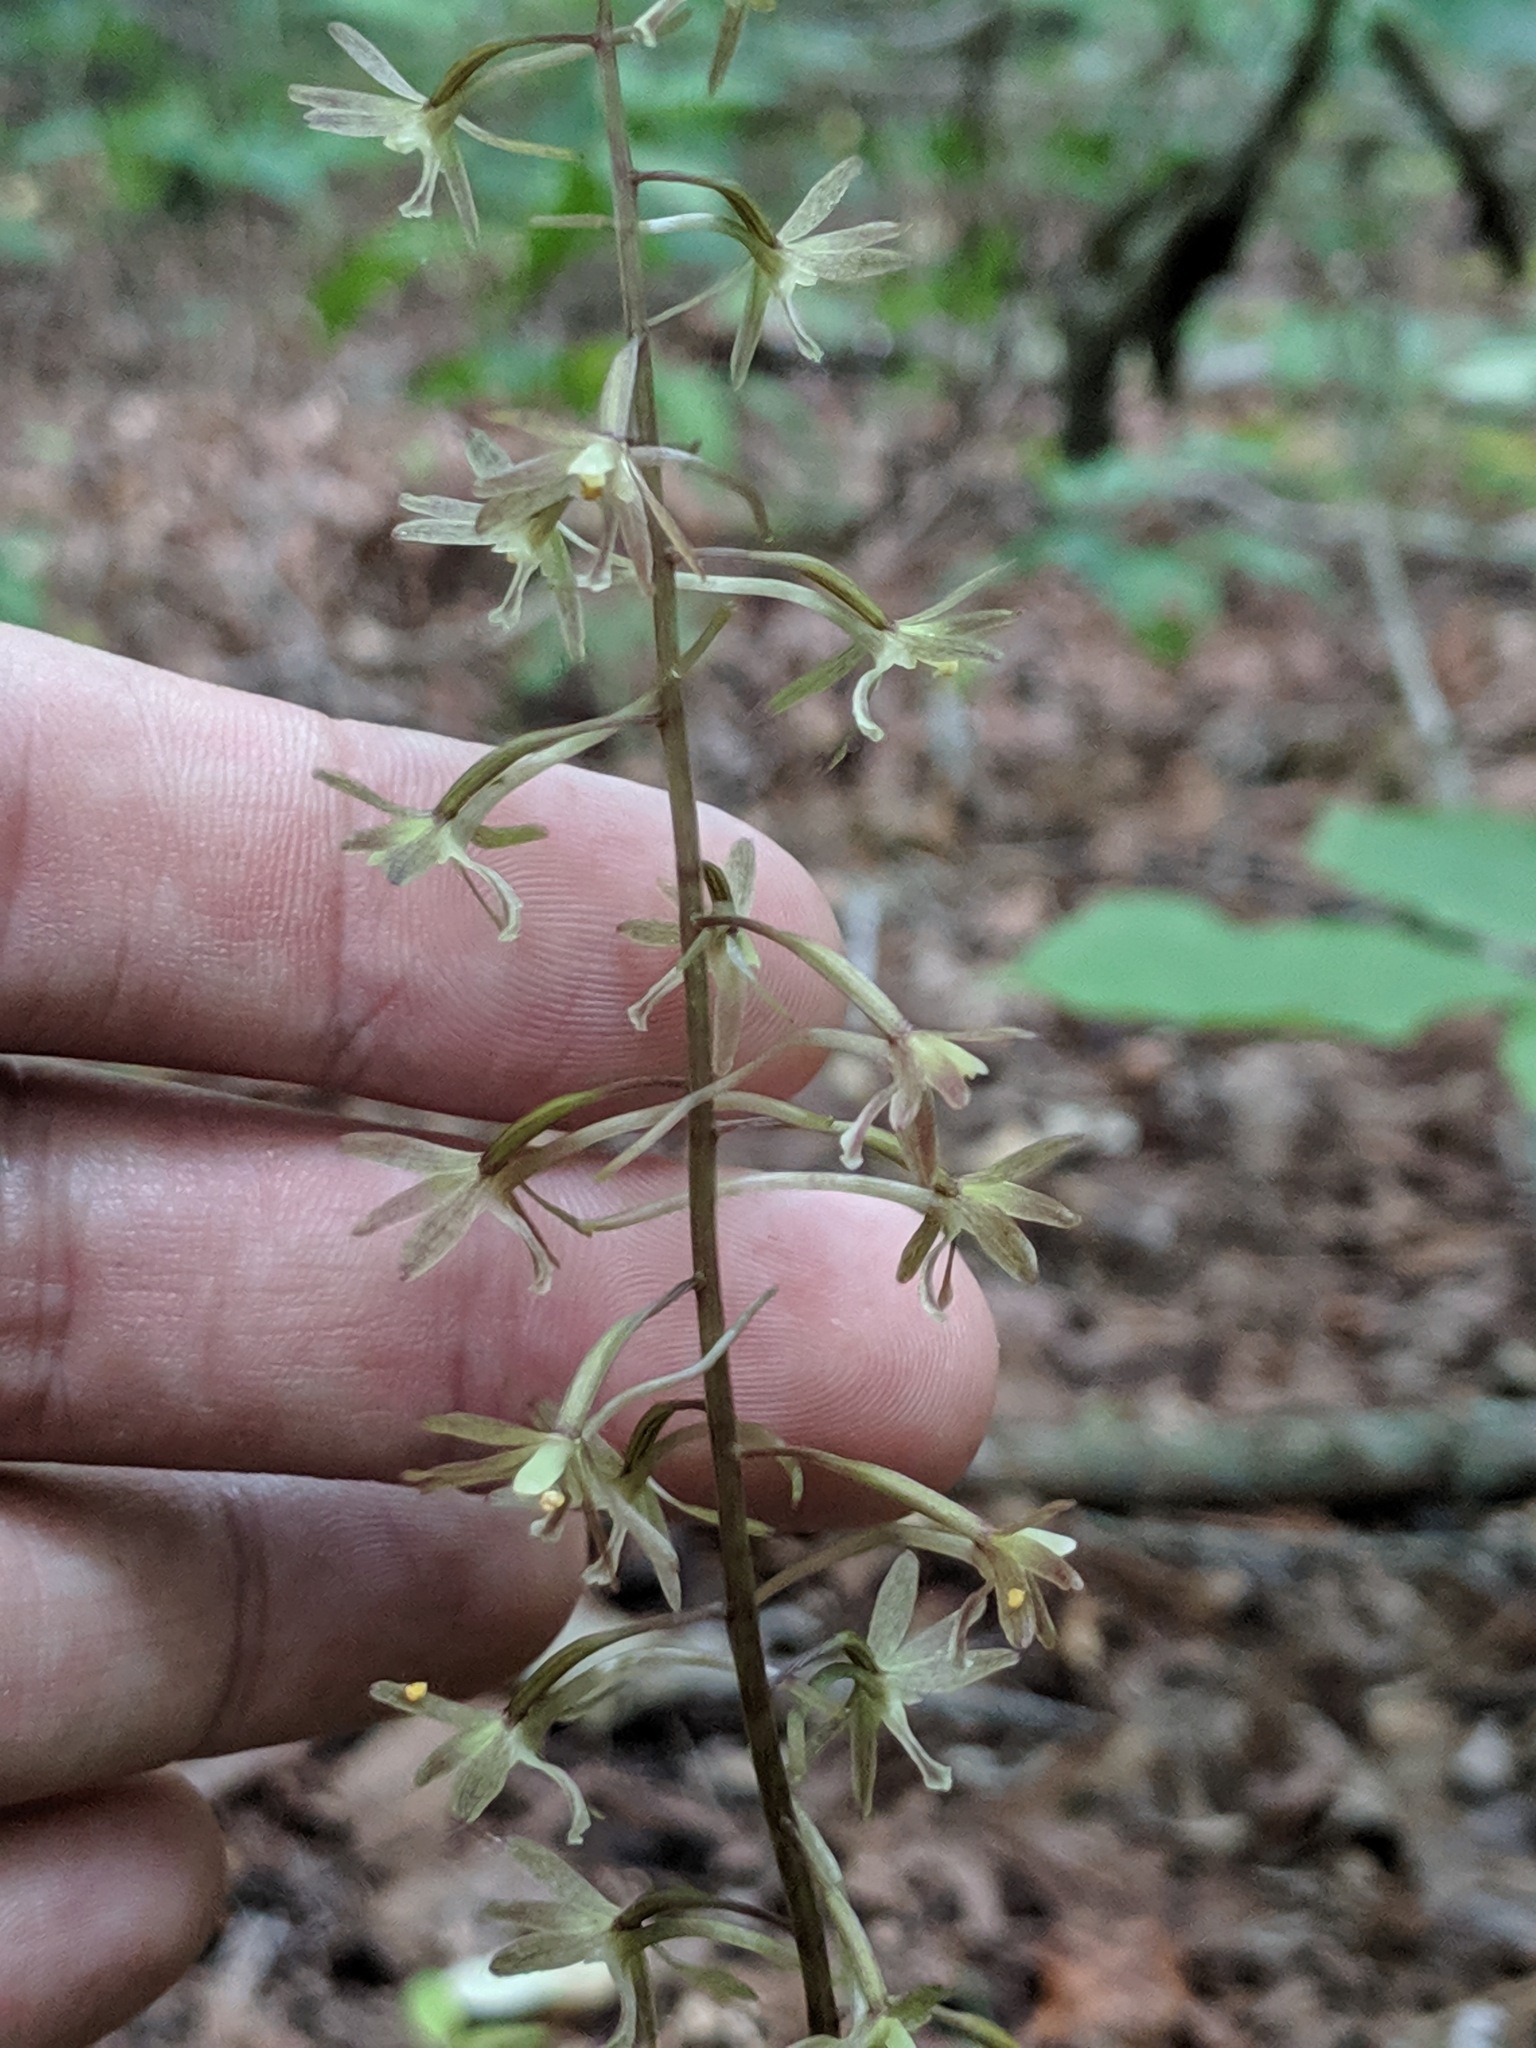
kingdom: Plantae
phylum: Tracheophyta
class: Liliopsida
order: Asparagales
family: Orchidaceae
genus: Tipularia
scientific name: Tipularia discolor
